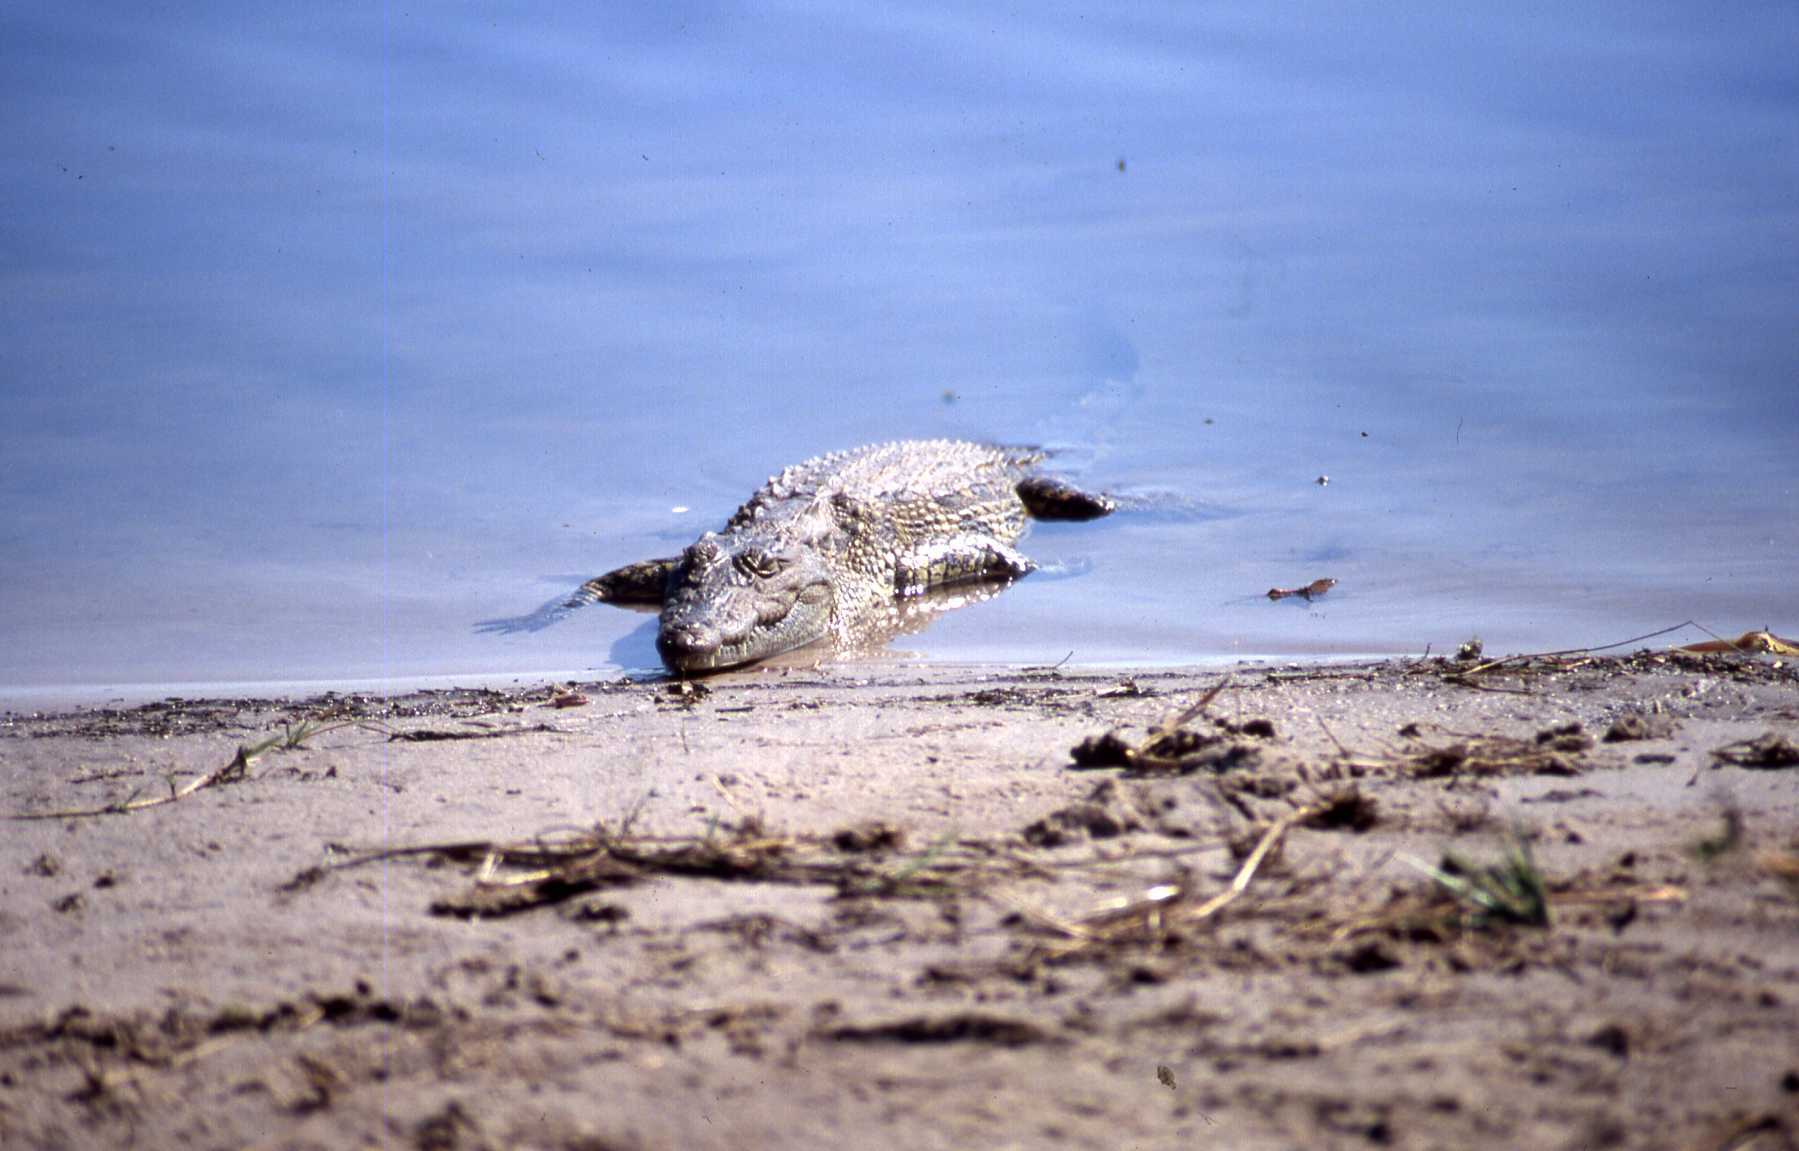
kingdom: Animalia
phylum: Chordata
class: Crocodylia
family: Crocodylidae
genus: Crocodylus
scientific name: Crocodylus niloticus
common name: Nile crocodile
